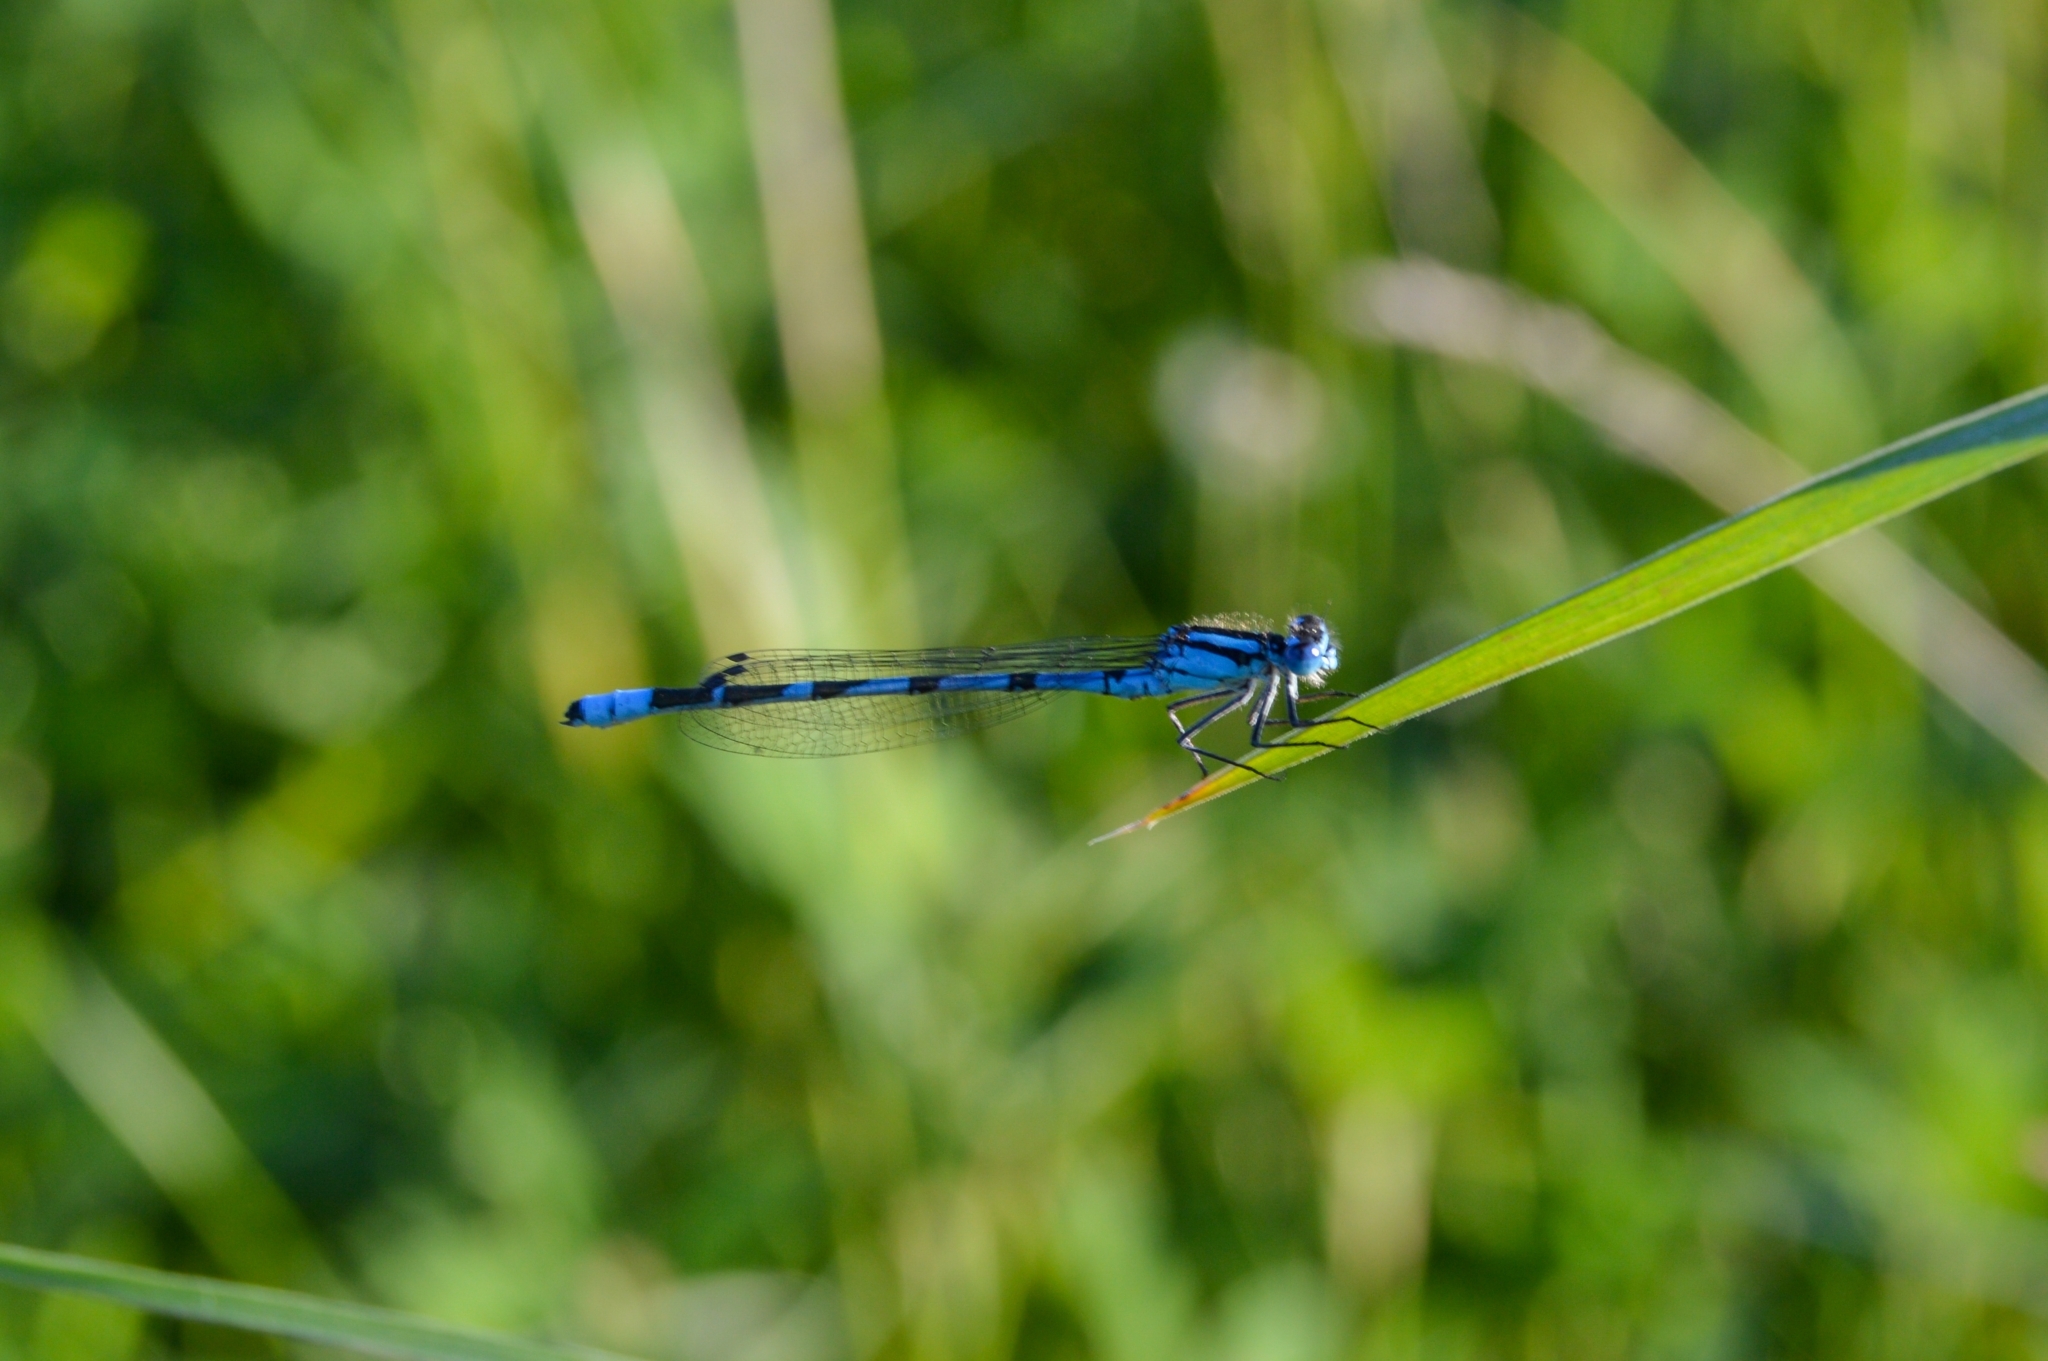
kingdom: Animalia
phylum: Arthropoda
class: Insecta
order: Odonata
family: Coenagrionidae
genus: Enallagma
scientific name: Enallagma cyathigerum
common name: Common blue damselfly
